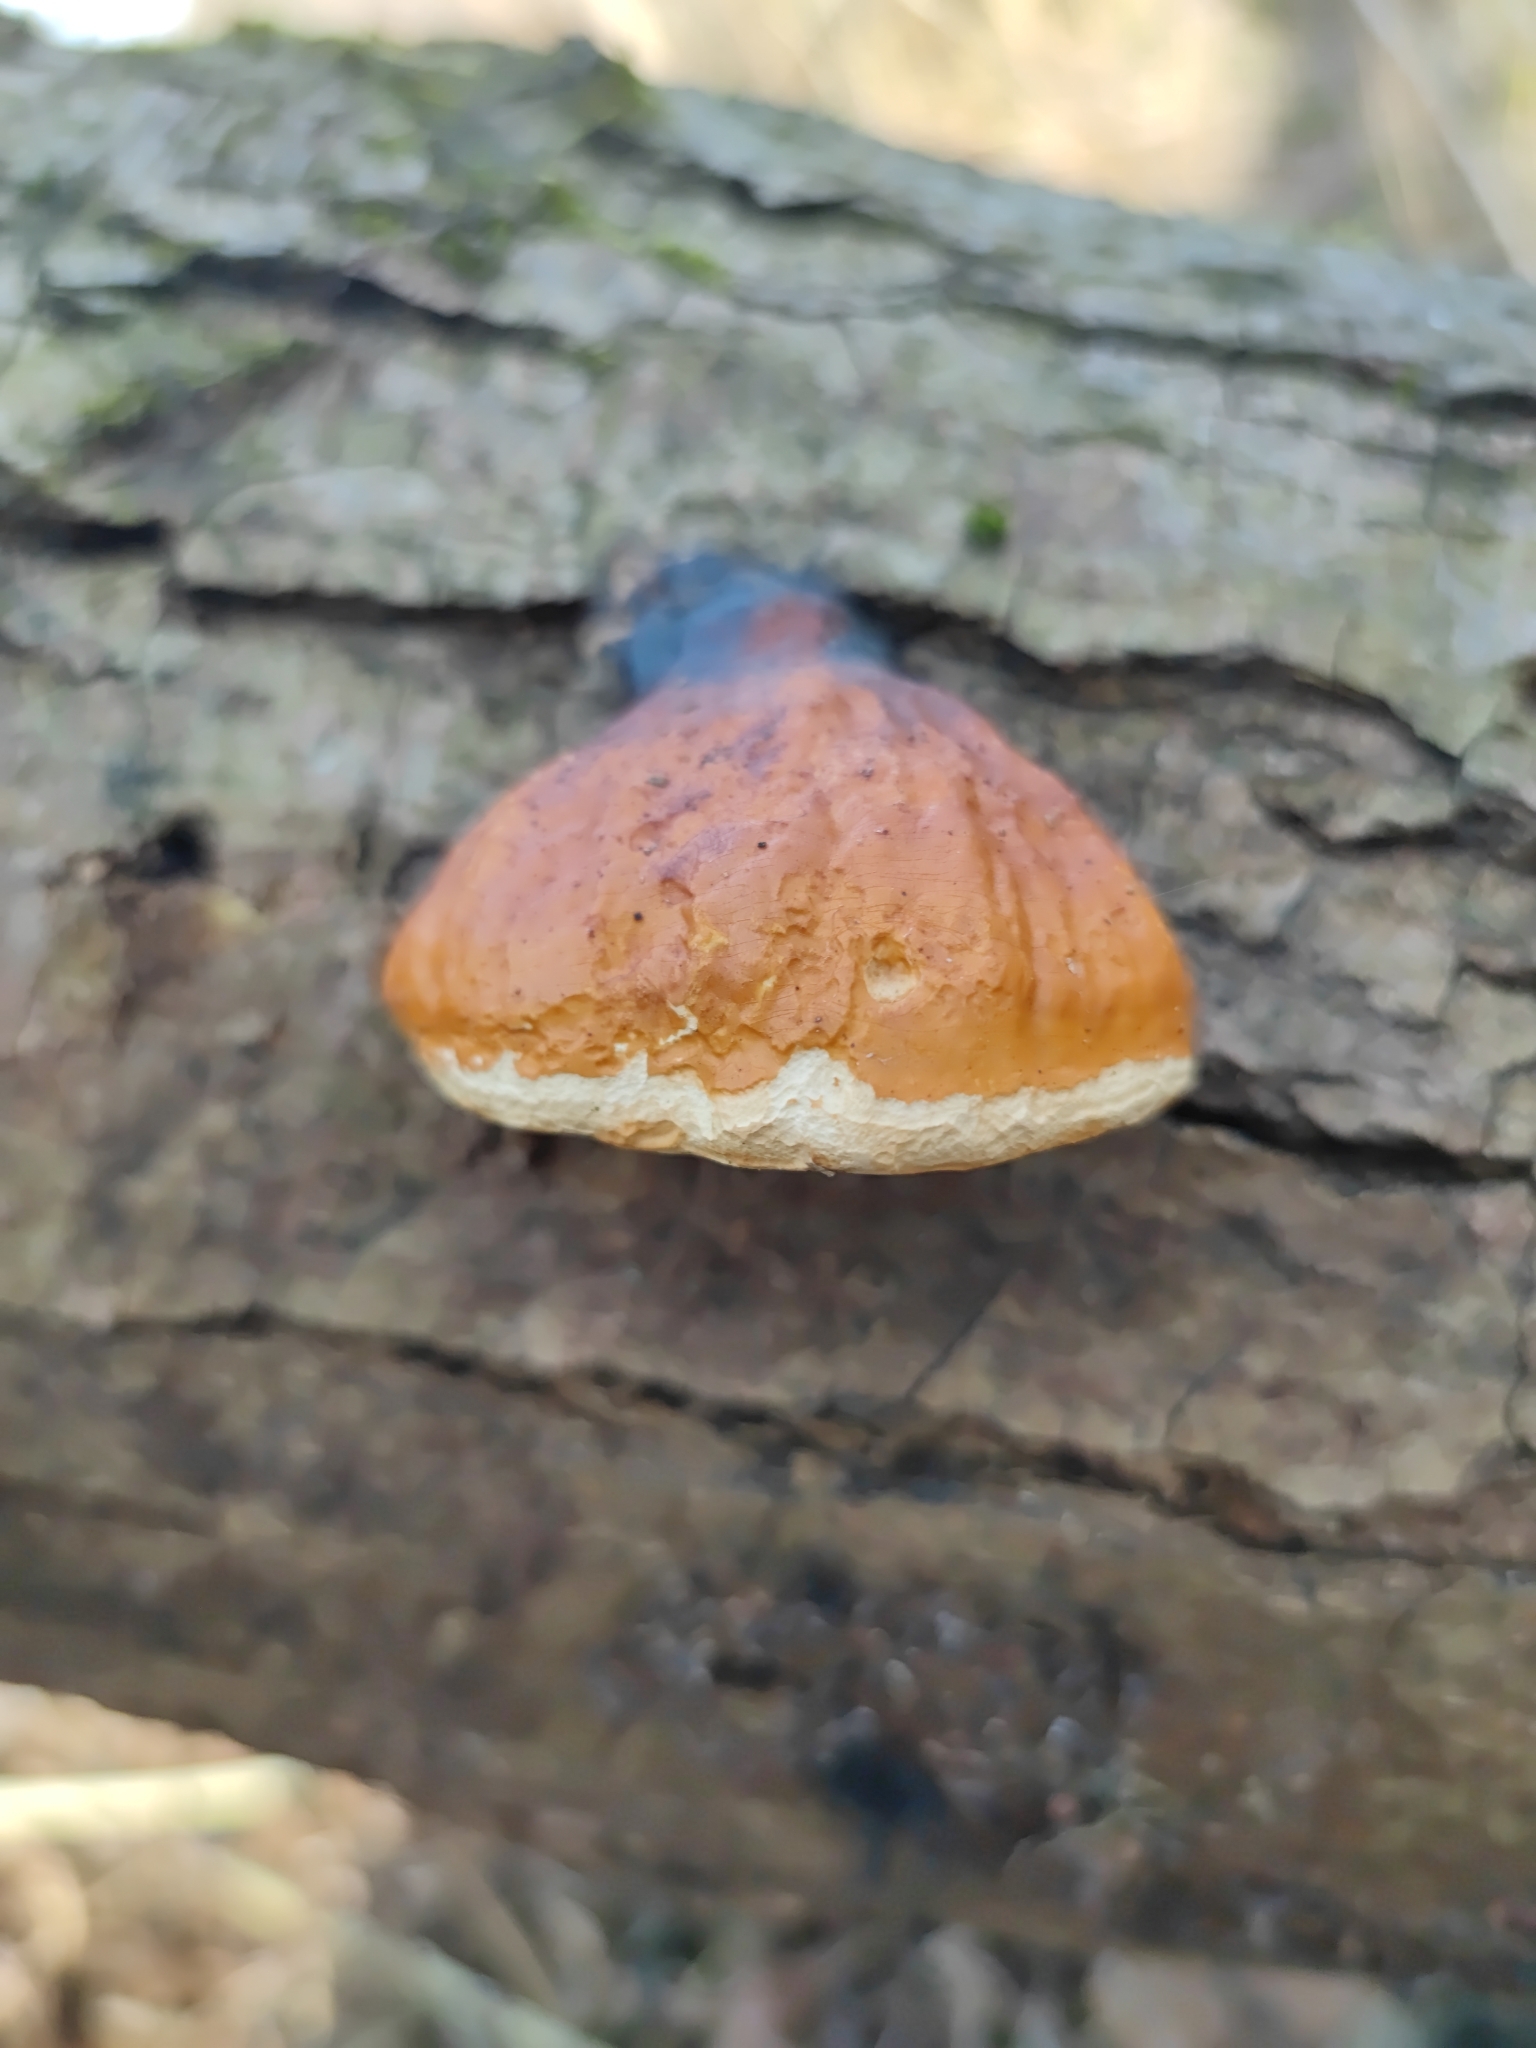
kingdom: Fungi
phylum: Basidiomycota
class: Agaricomycetes
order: Polyporales
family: Fomitopsidaceae
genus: Fomitopsis
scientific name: Fomitopsis pinicola
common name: Red-belted bracket
